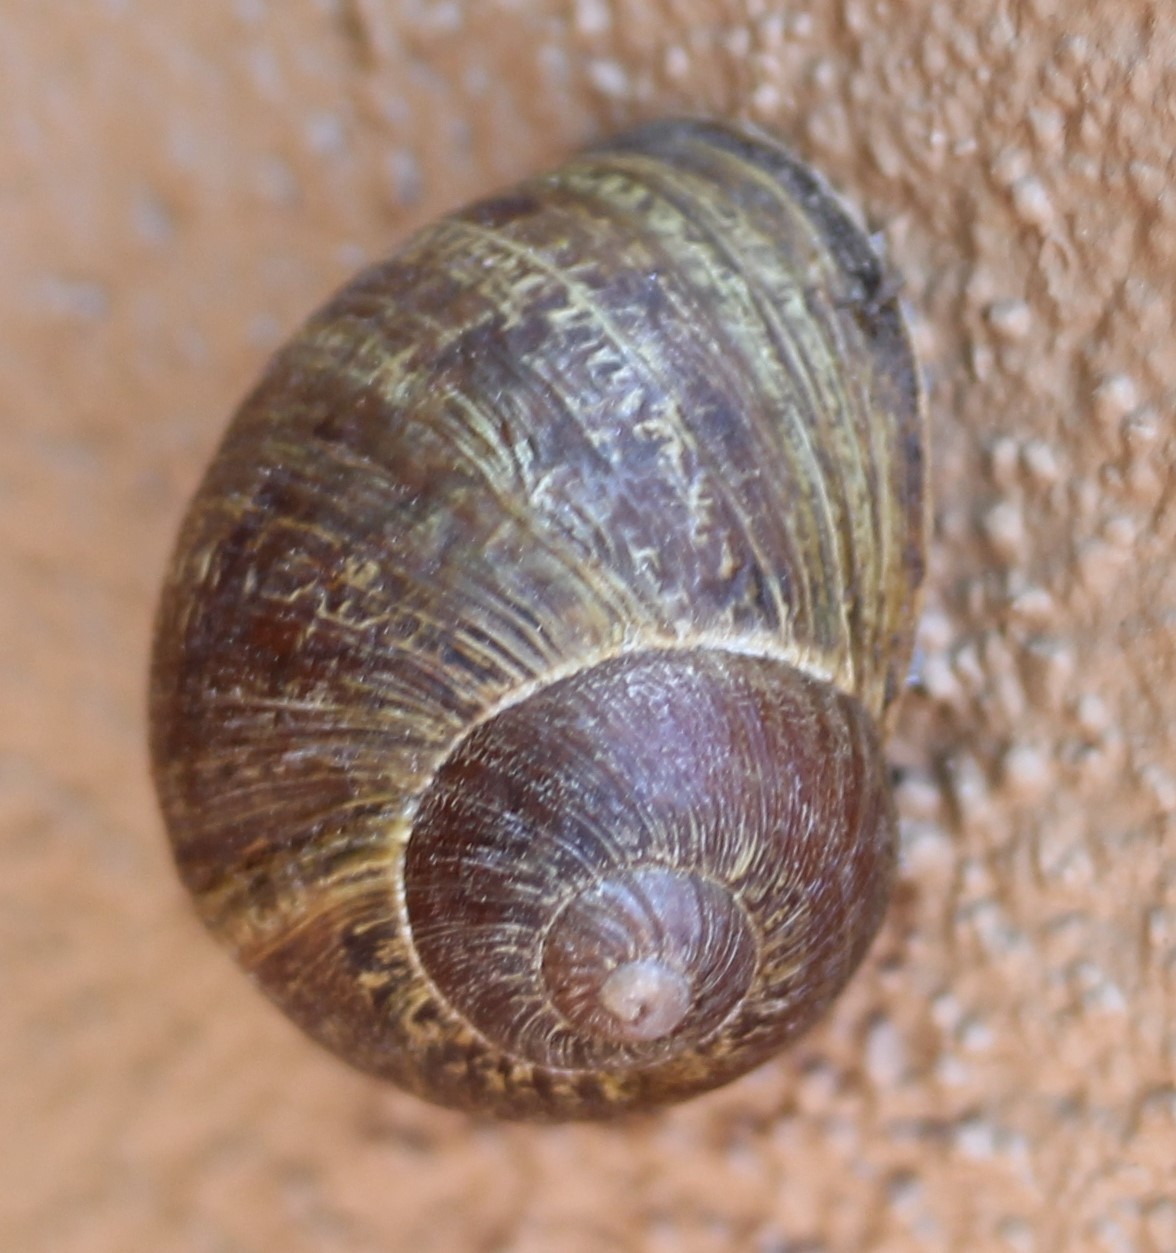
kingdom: Animalia
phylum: Mollusca
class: Gastropoda
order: Stylommatophora
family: Helicidae
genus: Cornu
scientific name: Cornu aspersum
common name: Brown garden snail
